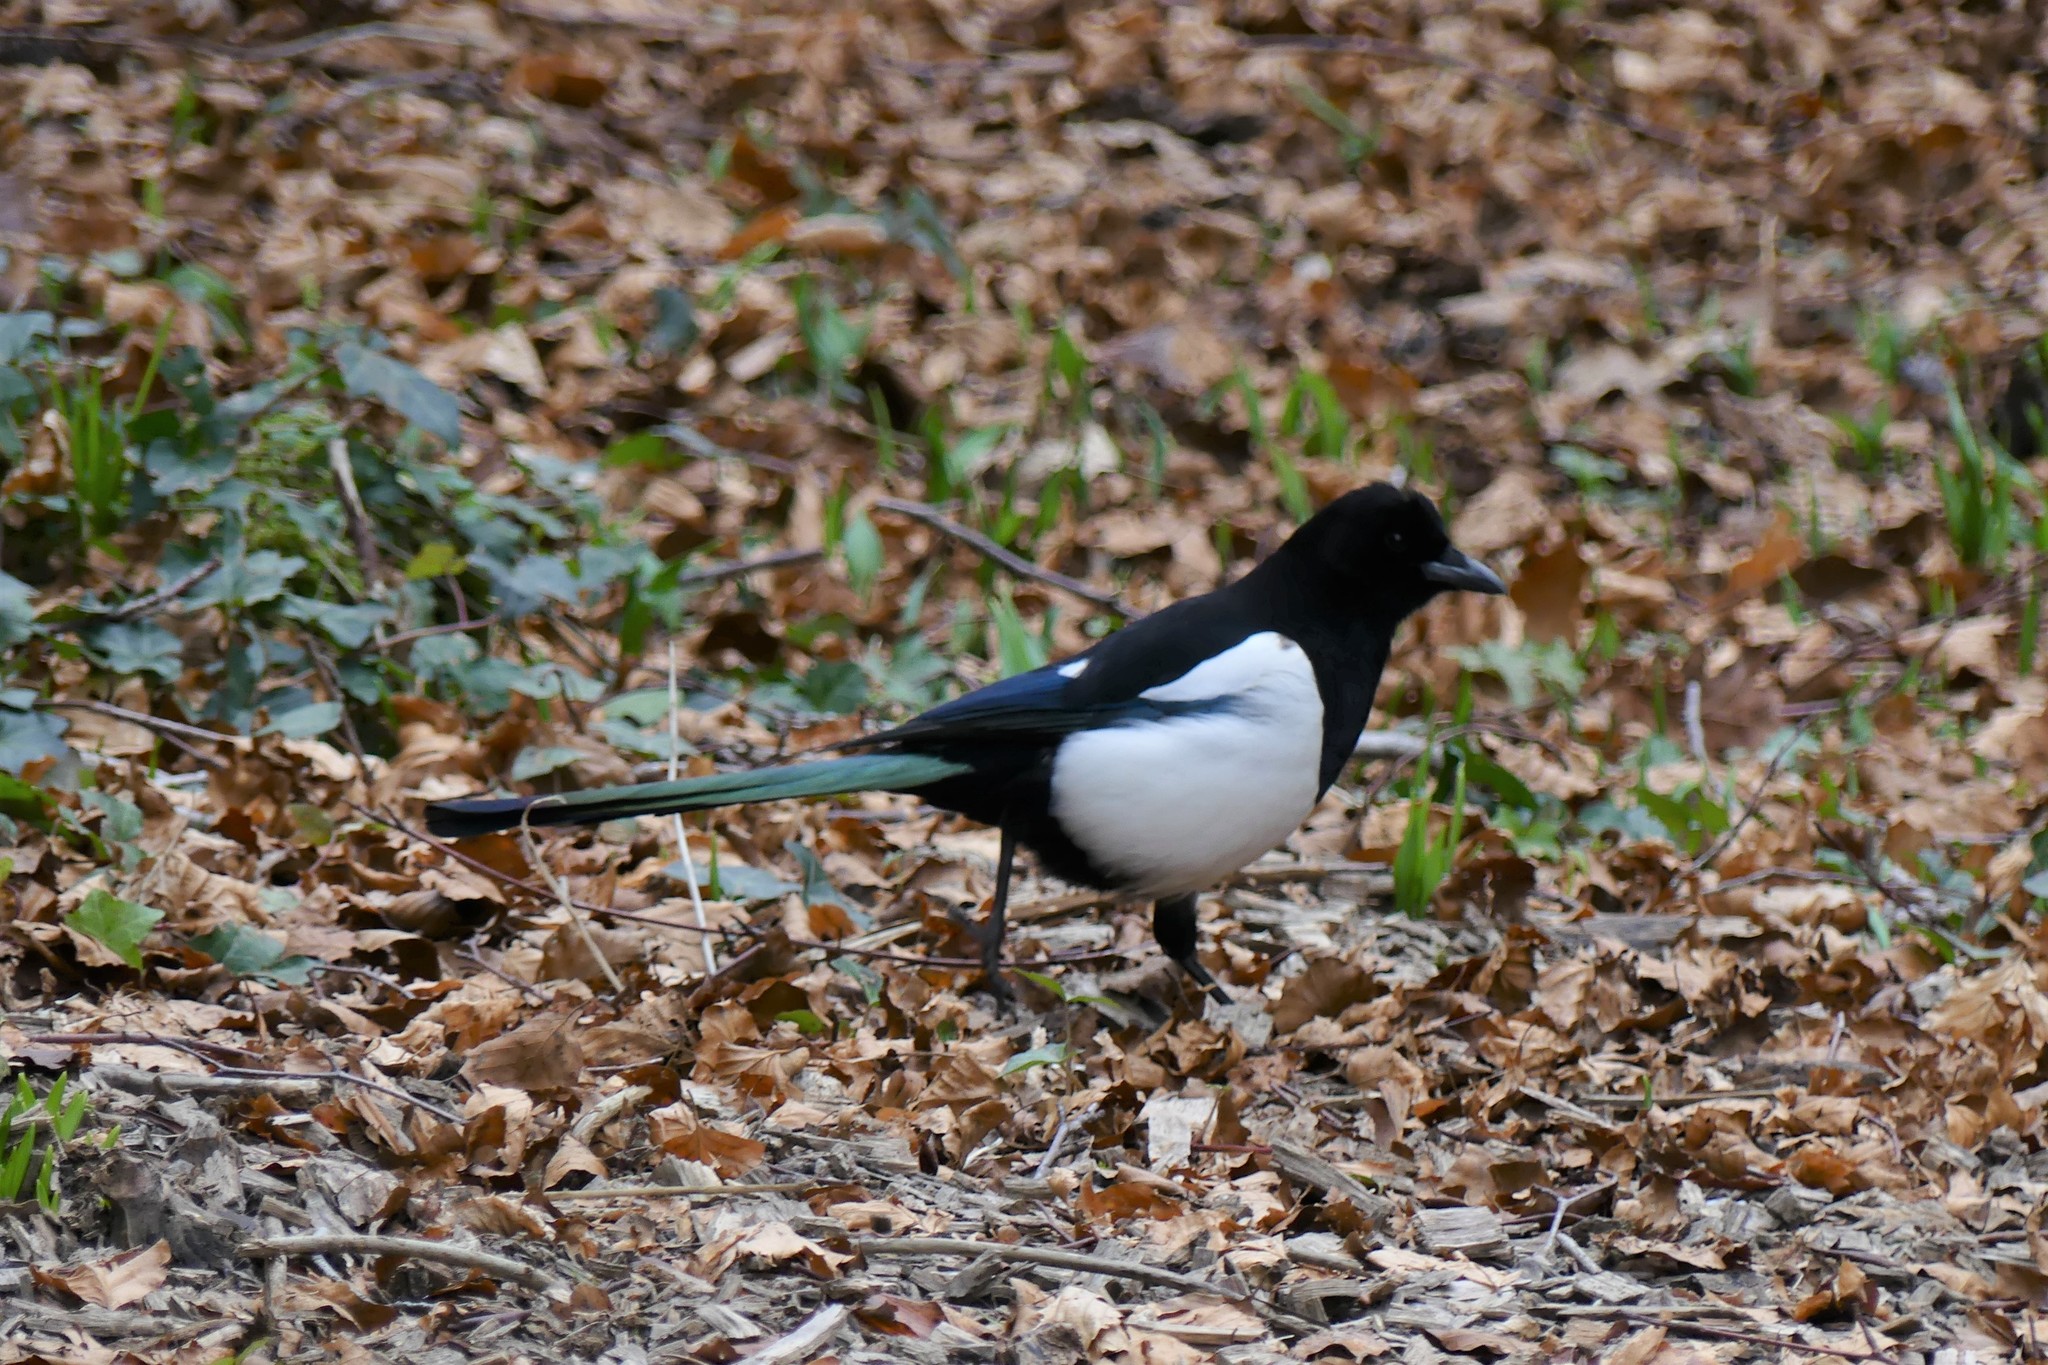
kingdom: Animalia
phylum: Chordata
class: Aves
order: Passeriformes
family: Corvidae
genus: Pica
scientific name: Pica pica
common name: Eurasian magpie
